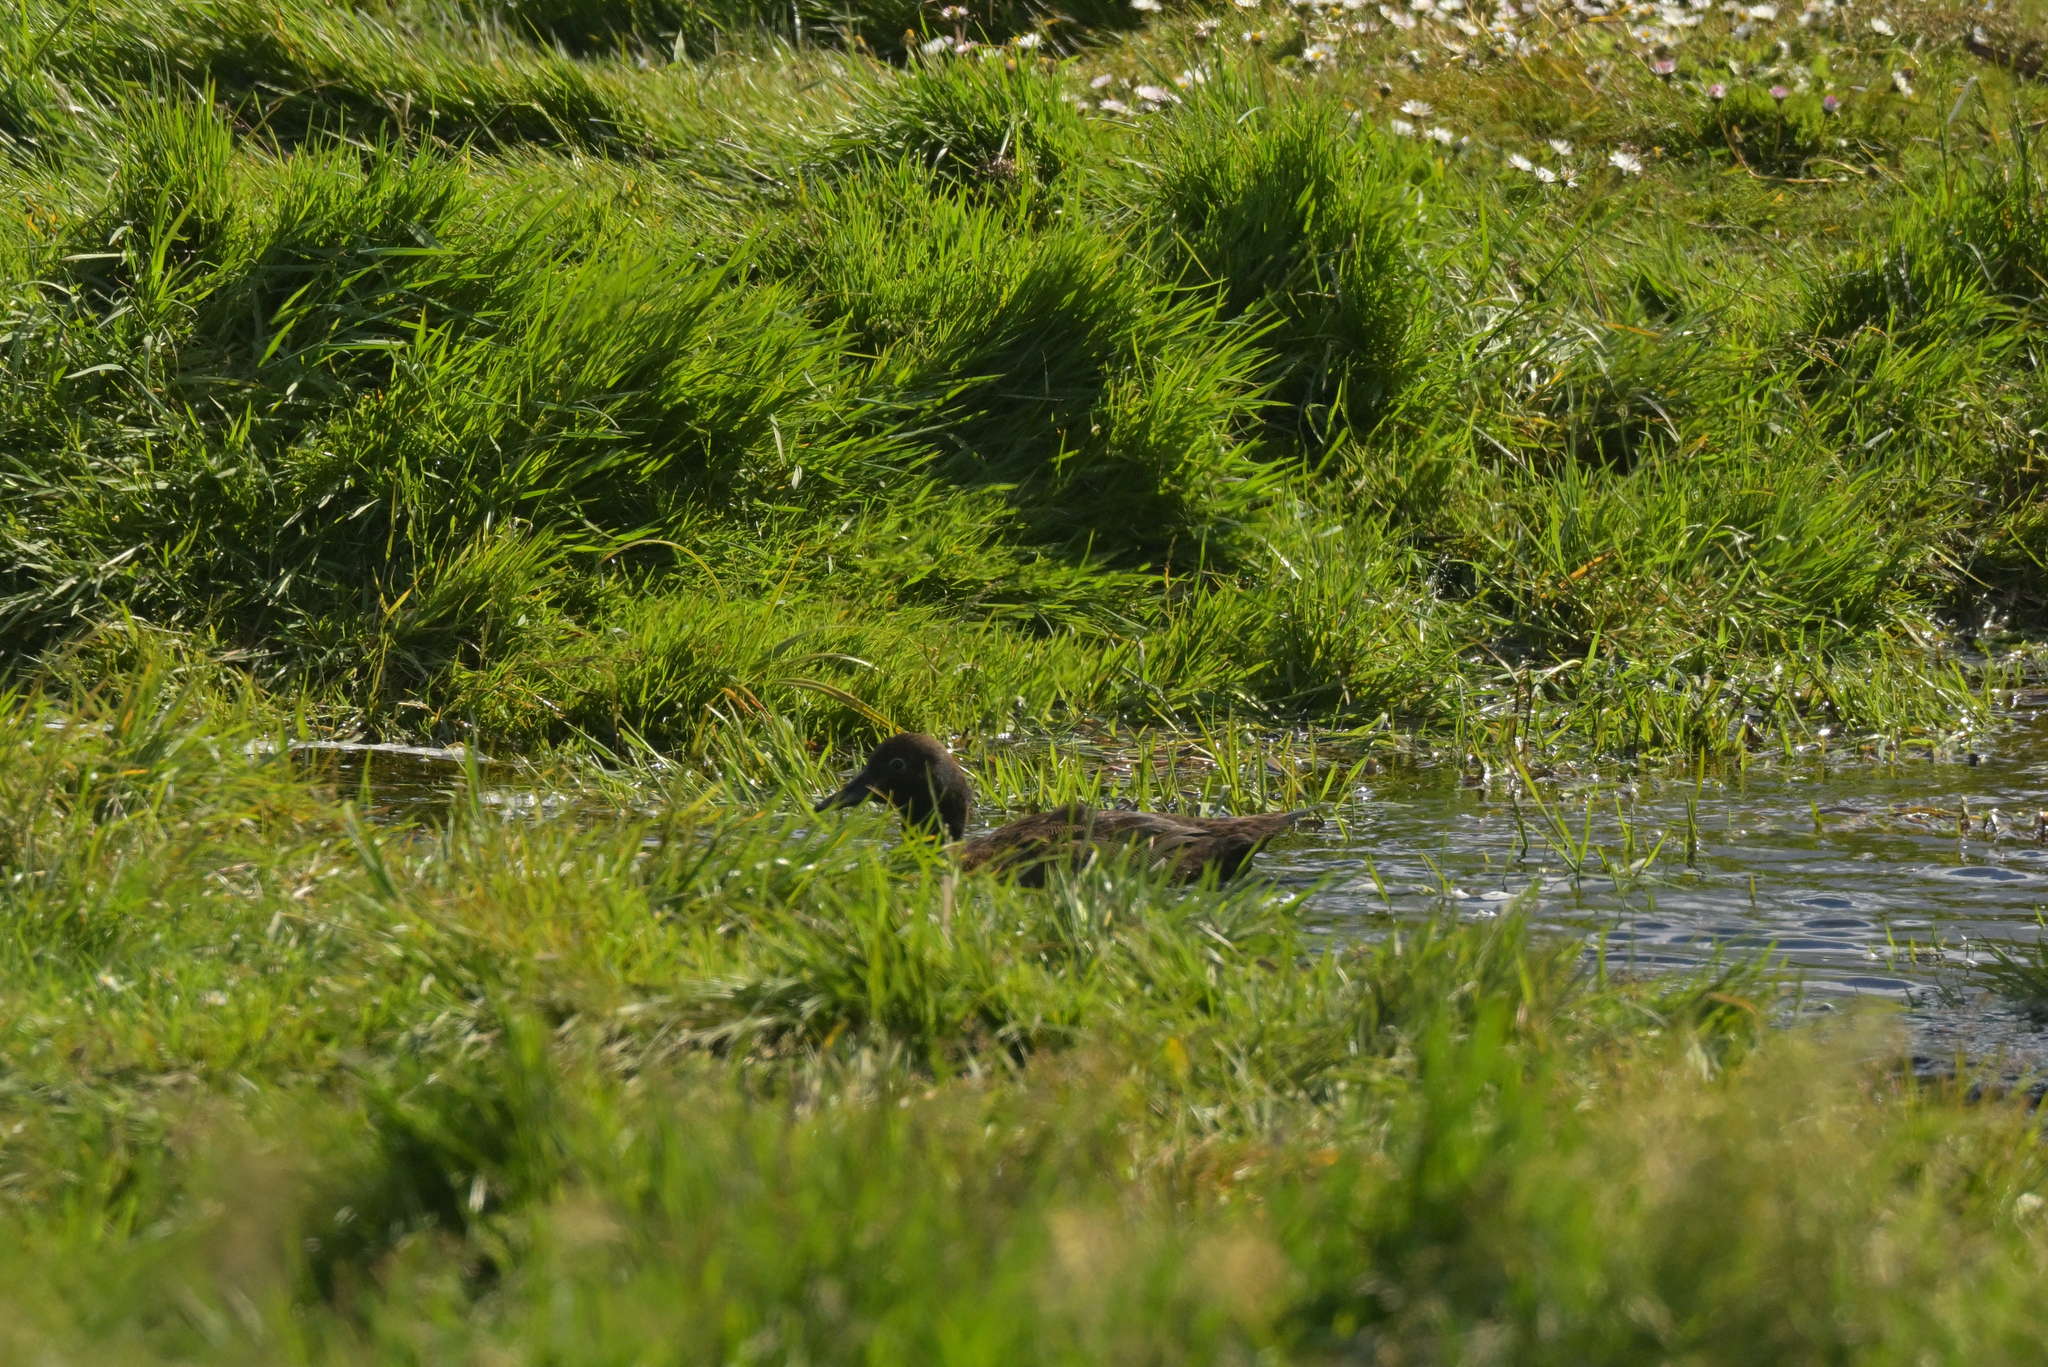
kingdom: Animalia
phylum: Chordata
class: Aves
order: Anseriformes
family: Anatidae
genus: Anas
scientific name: Anas aucklandica
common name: Auckland teal
